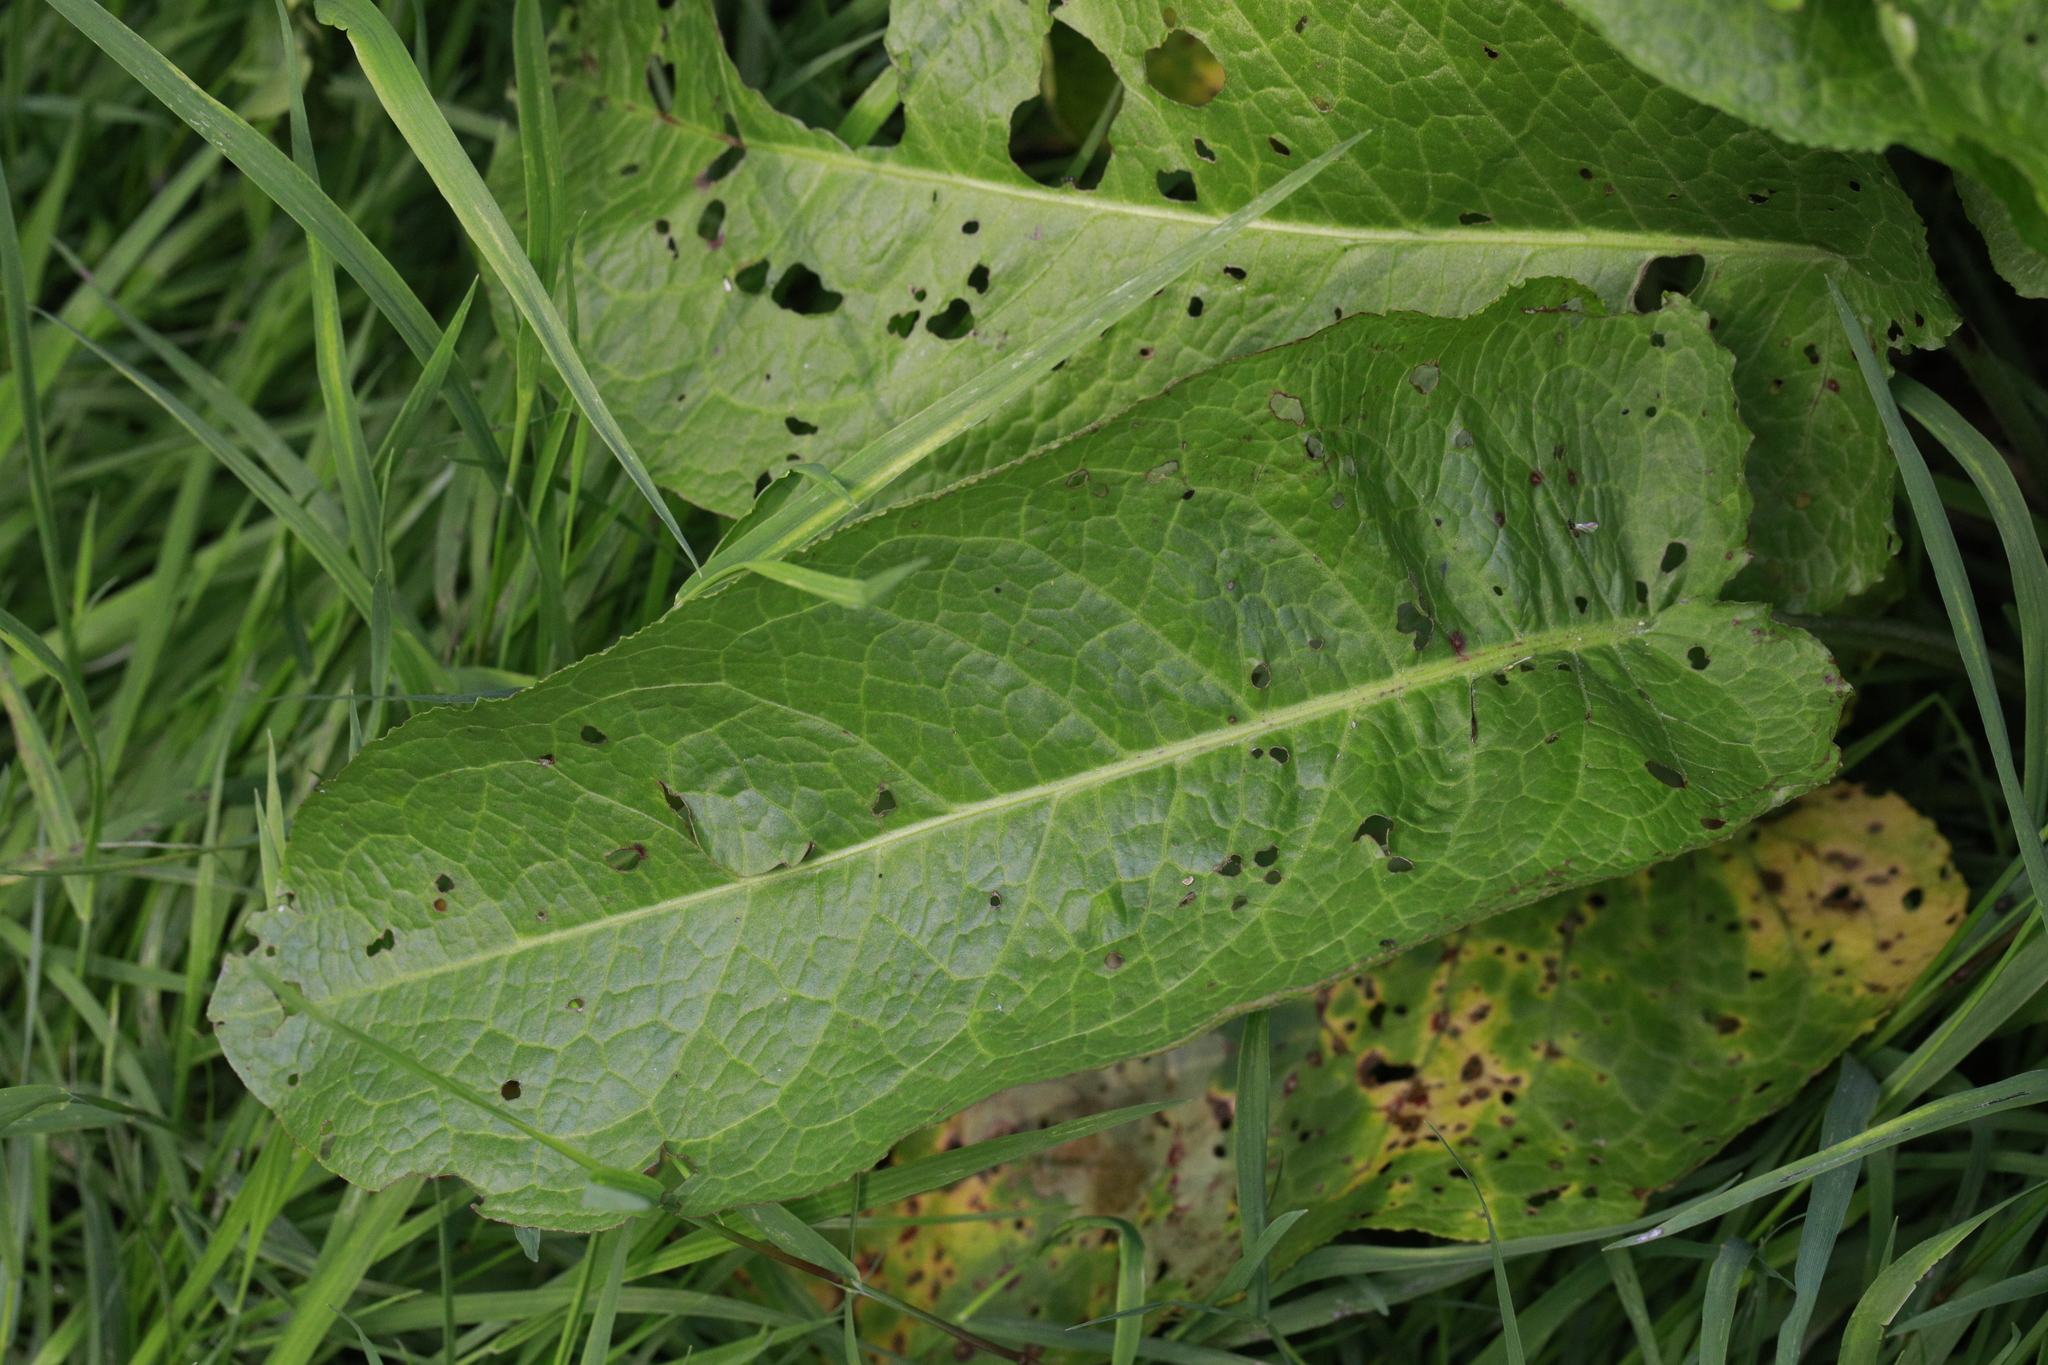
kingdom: Plantae
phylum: Tracheophyta
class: Magnoliopsida
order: Caryophyllales
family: Polygonaceae
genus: Rumex
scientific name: Rumex obtusifolius
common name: Bitter dock
